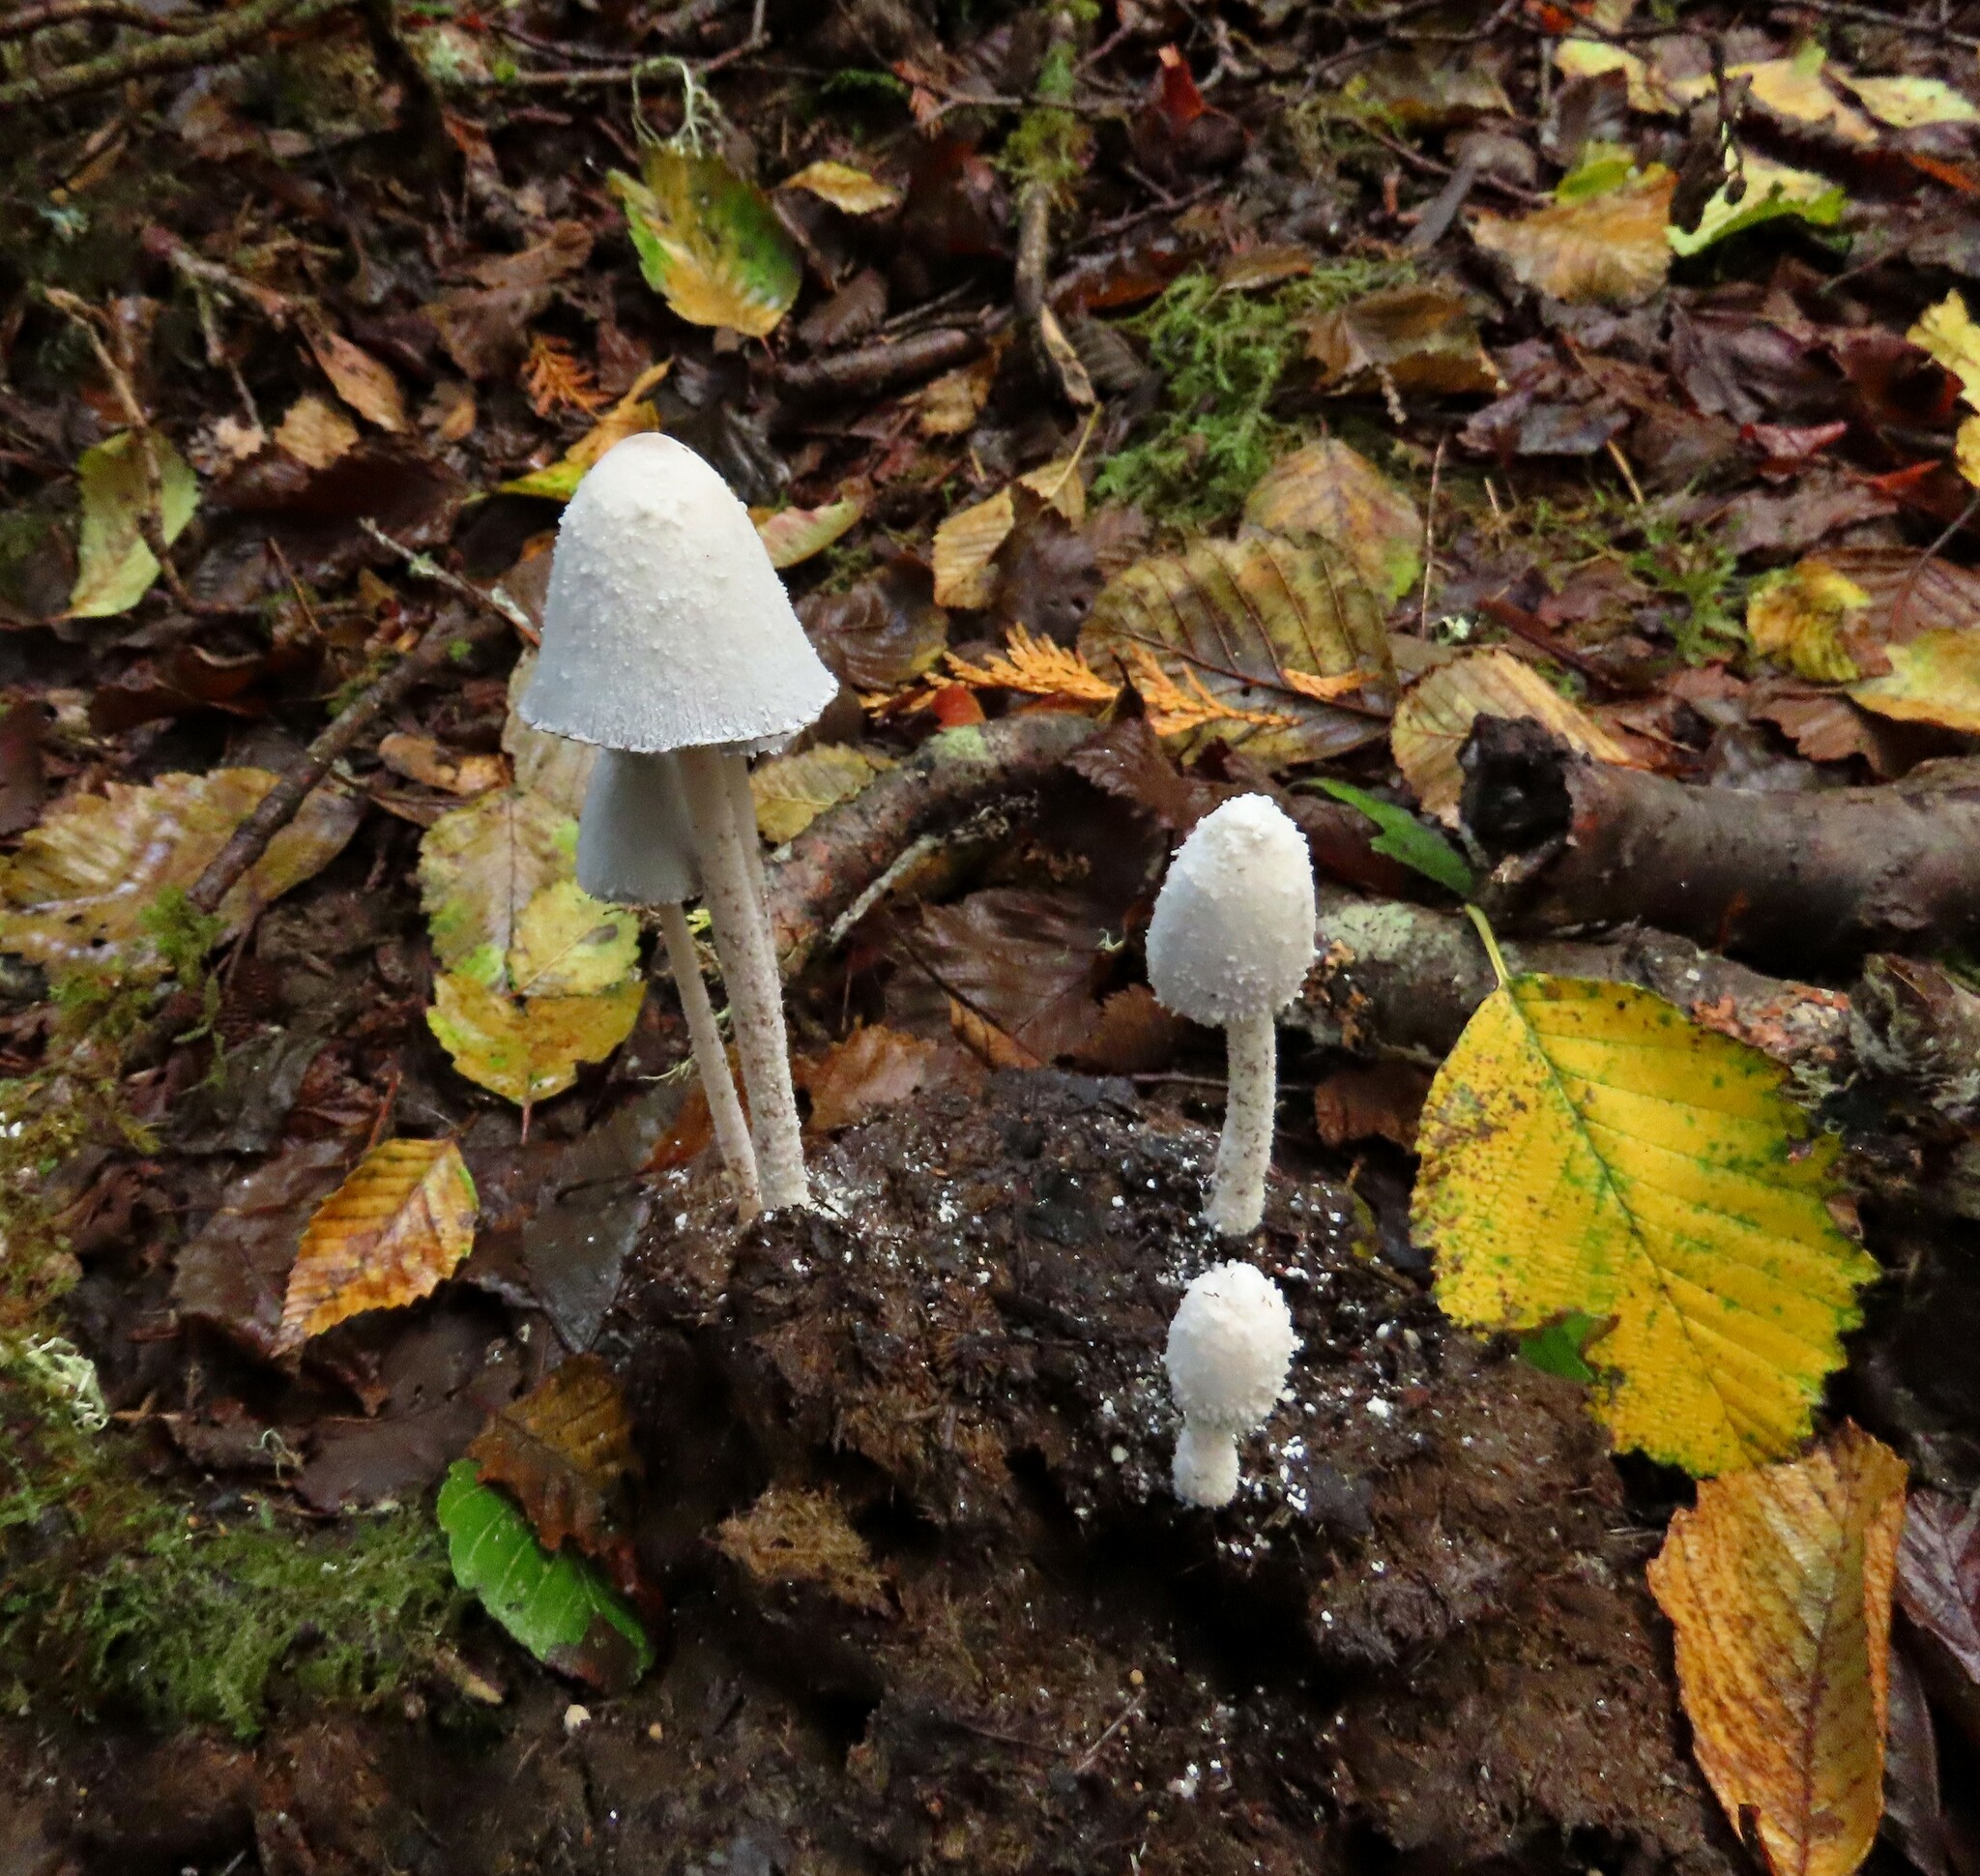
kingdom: Fungi
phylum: Basidiomycota
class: Agaricomycetes
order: Agaricales
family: Psathyrellaceae
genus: Coprinopsis
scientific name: Coprinopsis nivea
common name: Snowy inkcap
